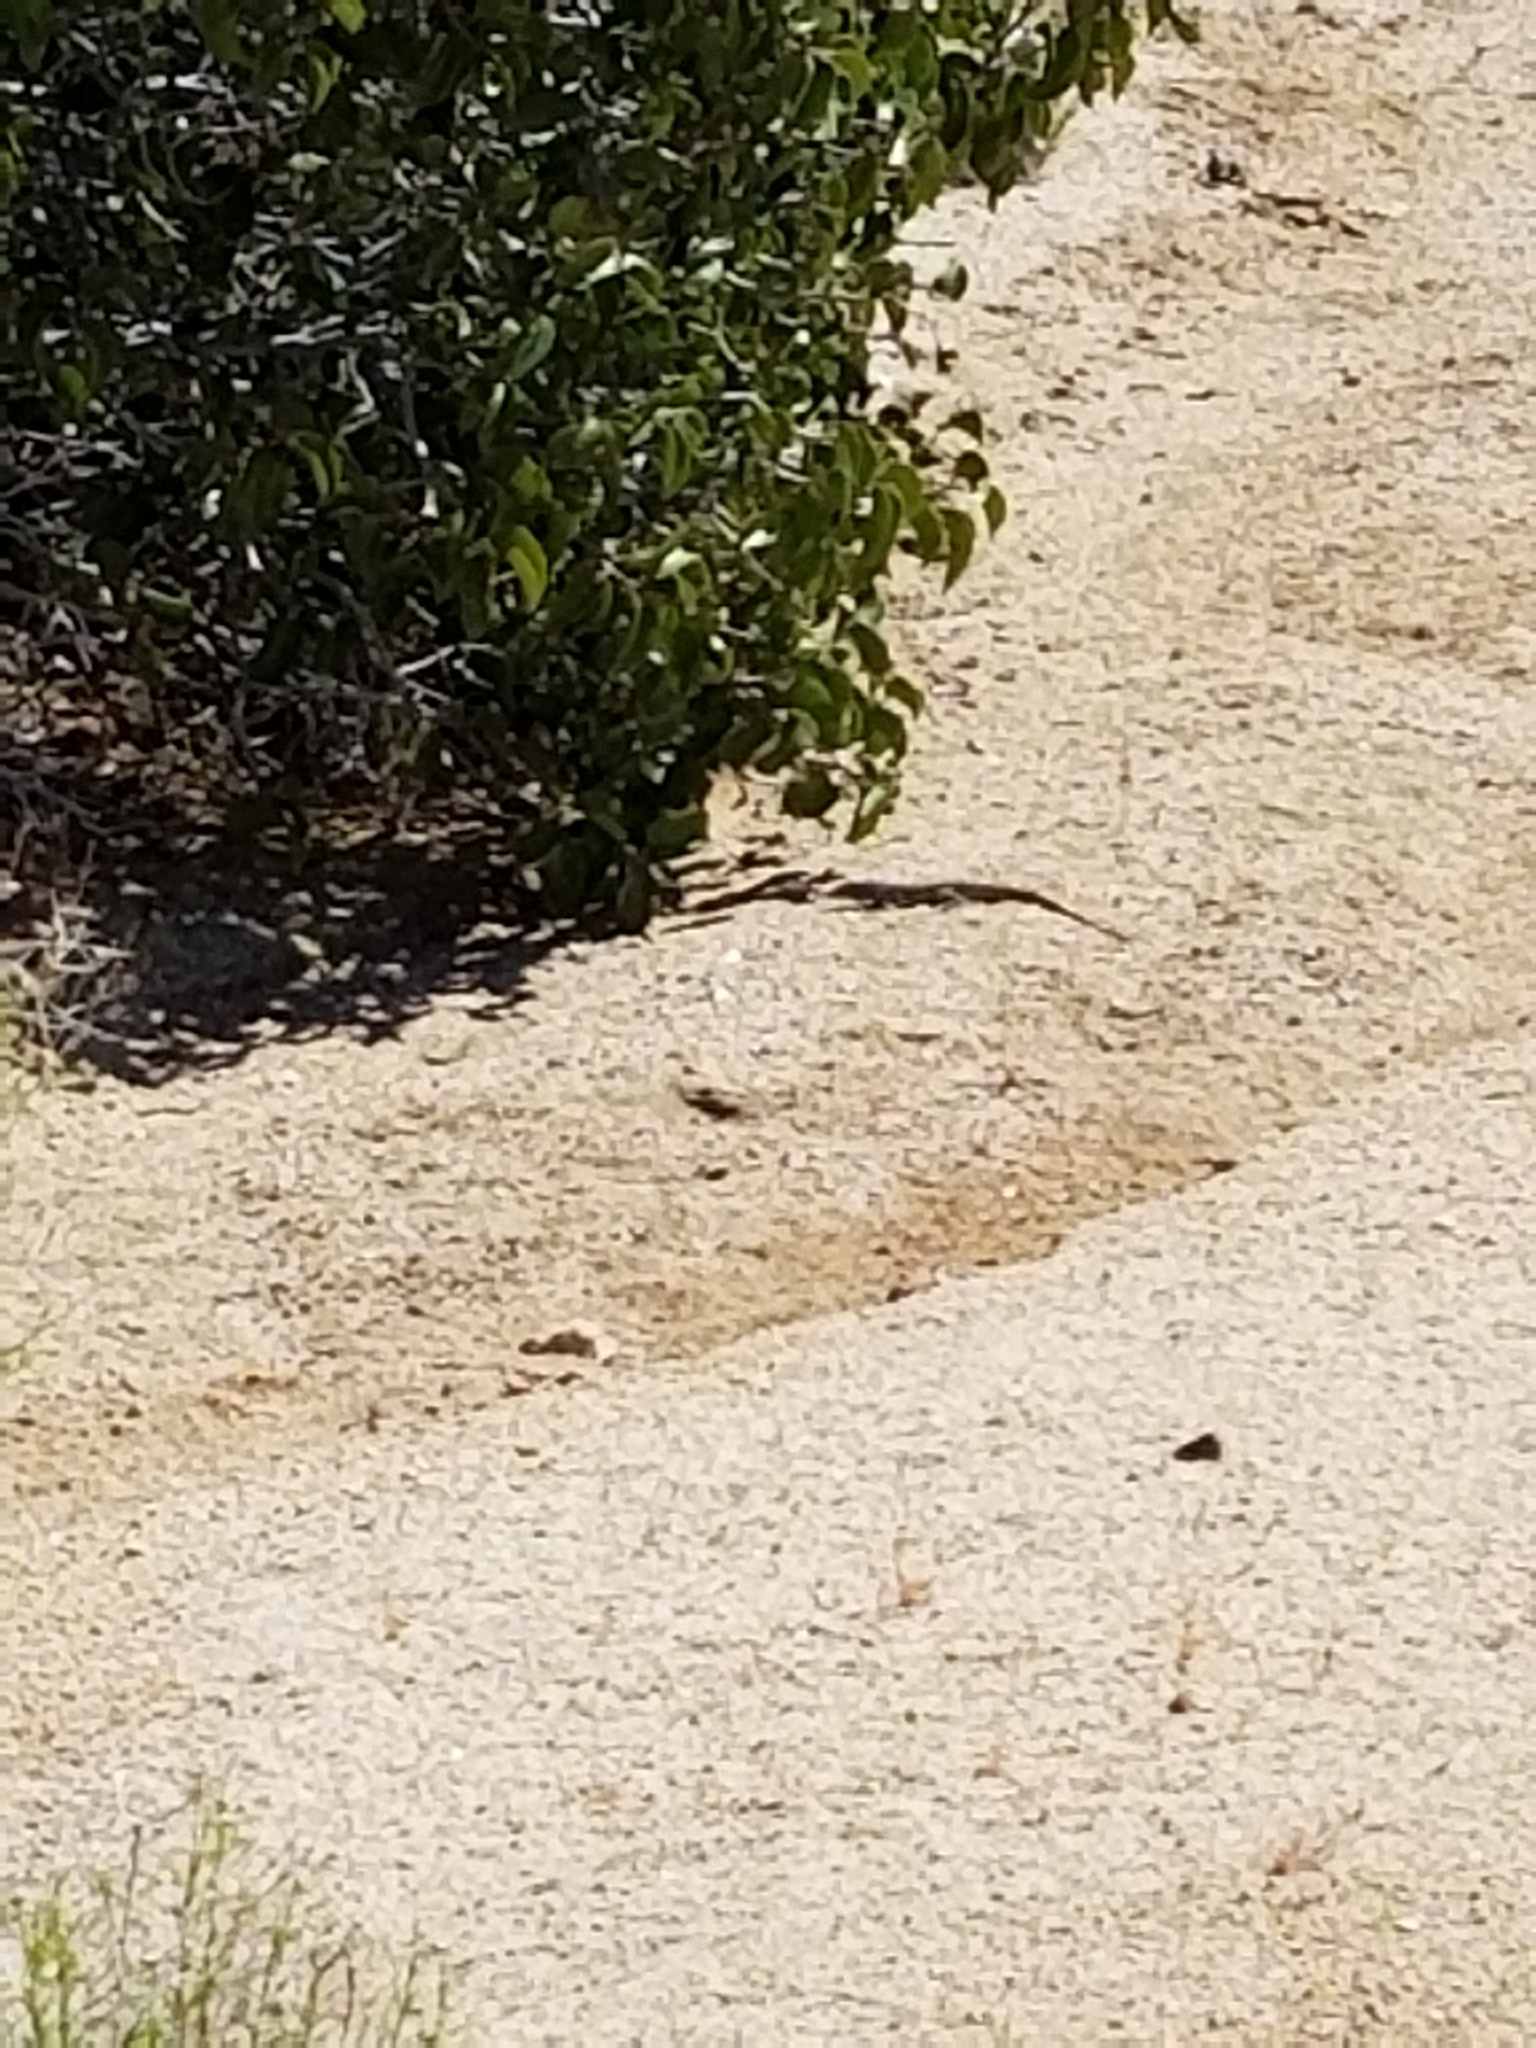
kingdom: Animalia
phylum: Chordata
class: Squamata
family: Teiidae
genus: Aspidoscelis
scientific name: Aspidoscelis tigris
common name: Tiger whiptail
